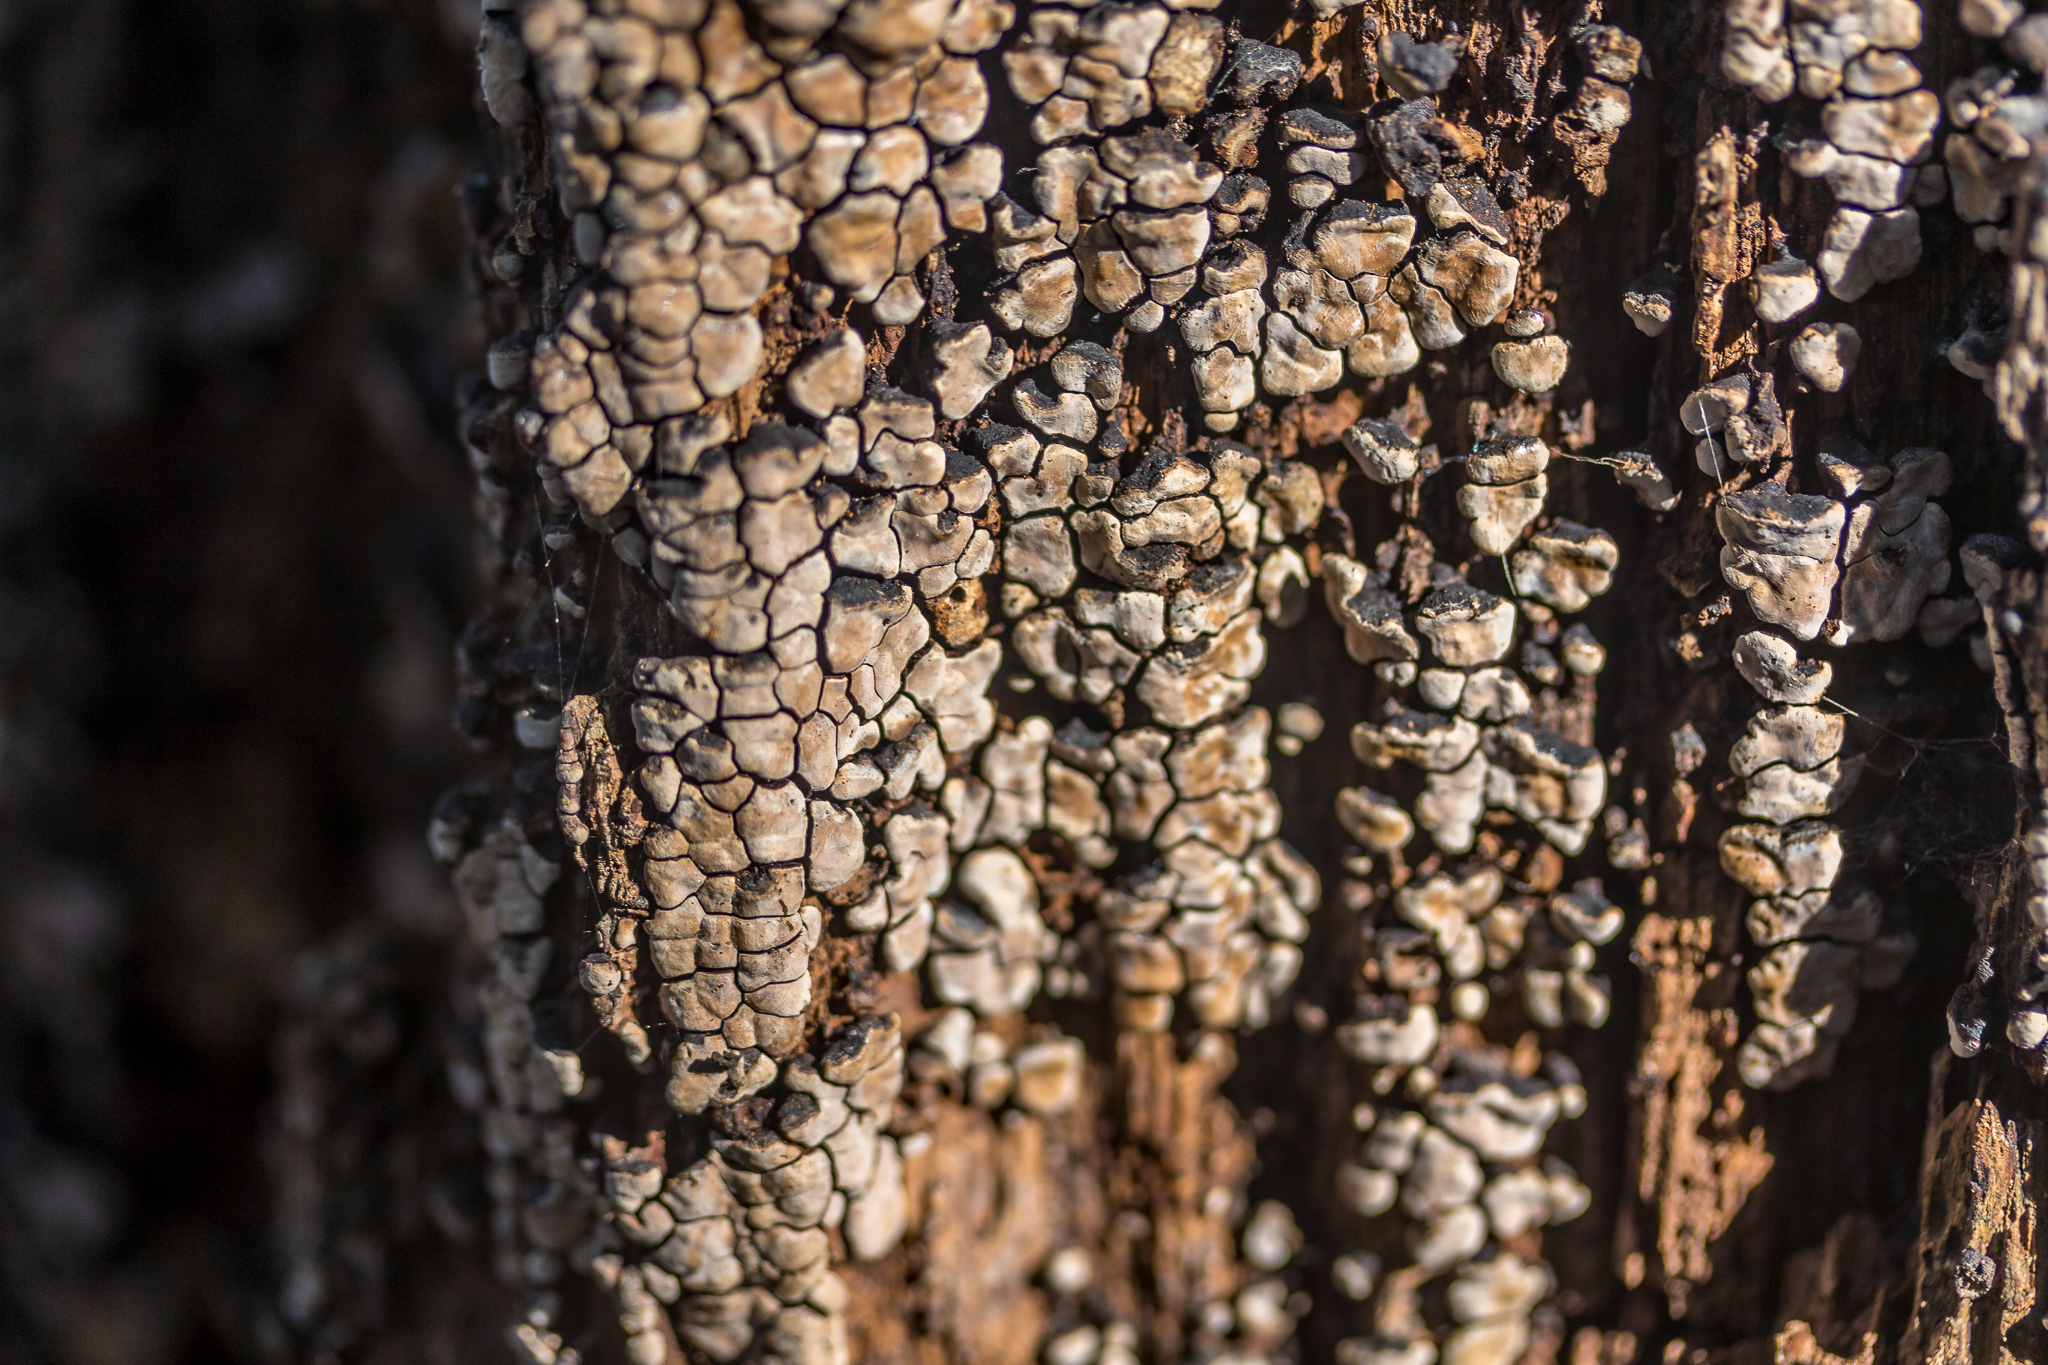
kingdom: Fungi
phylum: Basidiomycota
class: Agaricomycetes
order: Russulales
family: Stereaceae
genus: Xylobolus
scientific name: Xylobolus frustulatus
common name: Ceramic parchment
